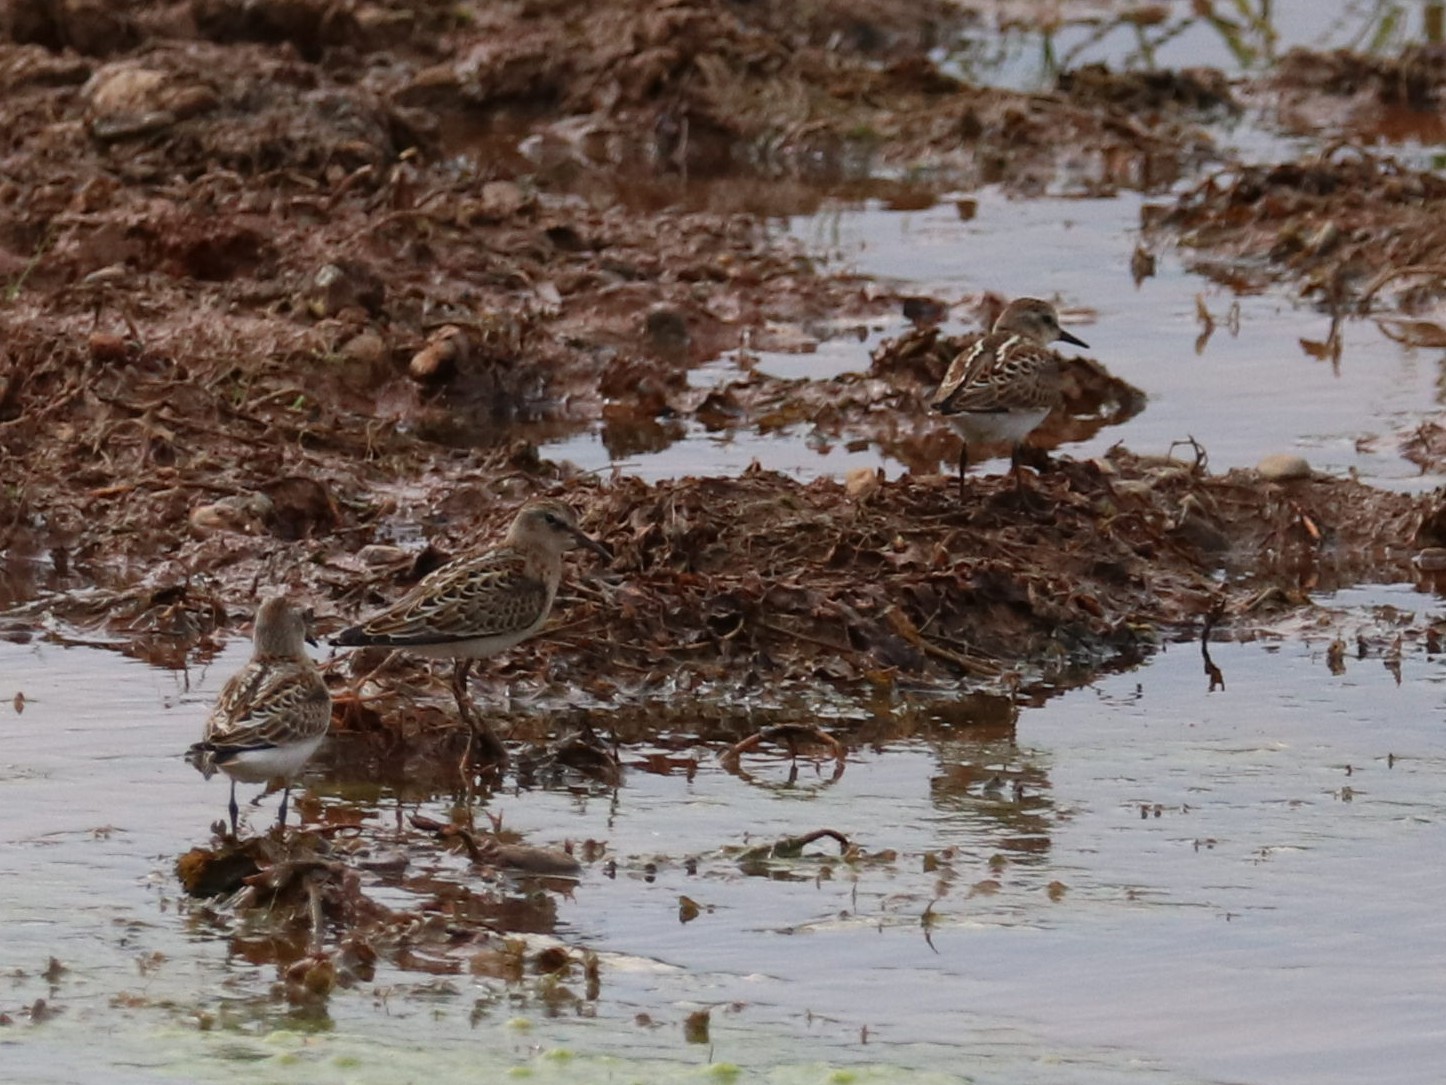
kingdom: Animalia
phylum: Chordata
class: Aves
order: Charadriiformes
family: Scolopacidae
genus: Calidris
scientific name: Calidris minuta
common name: Little stint
